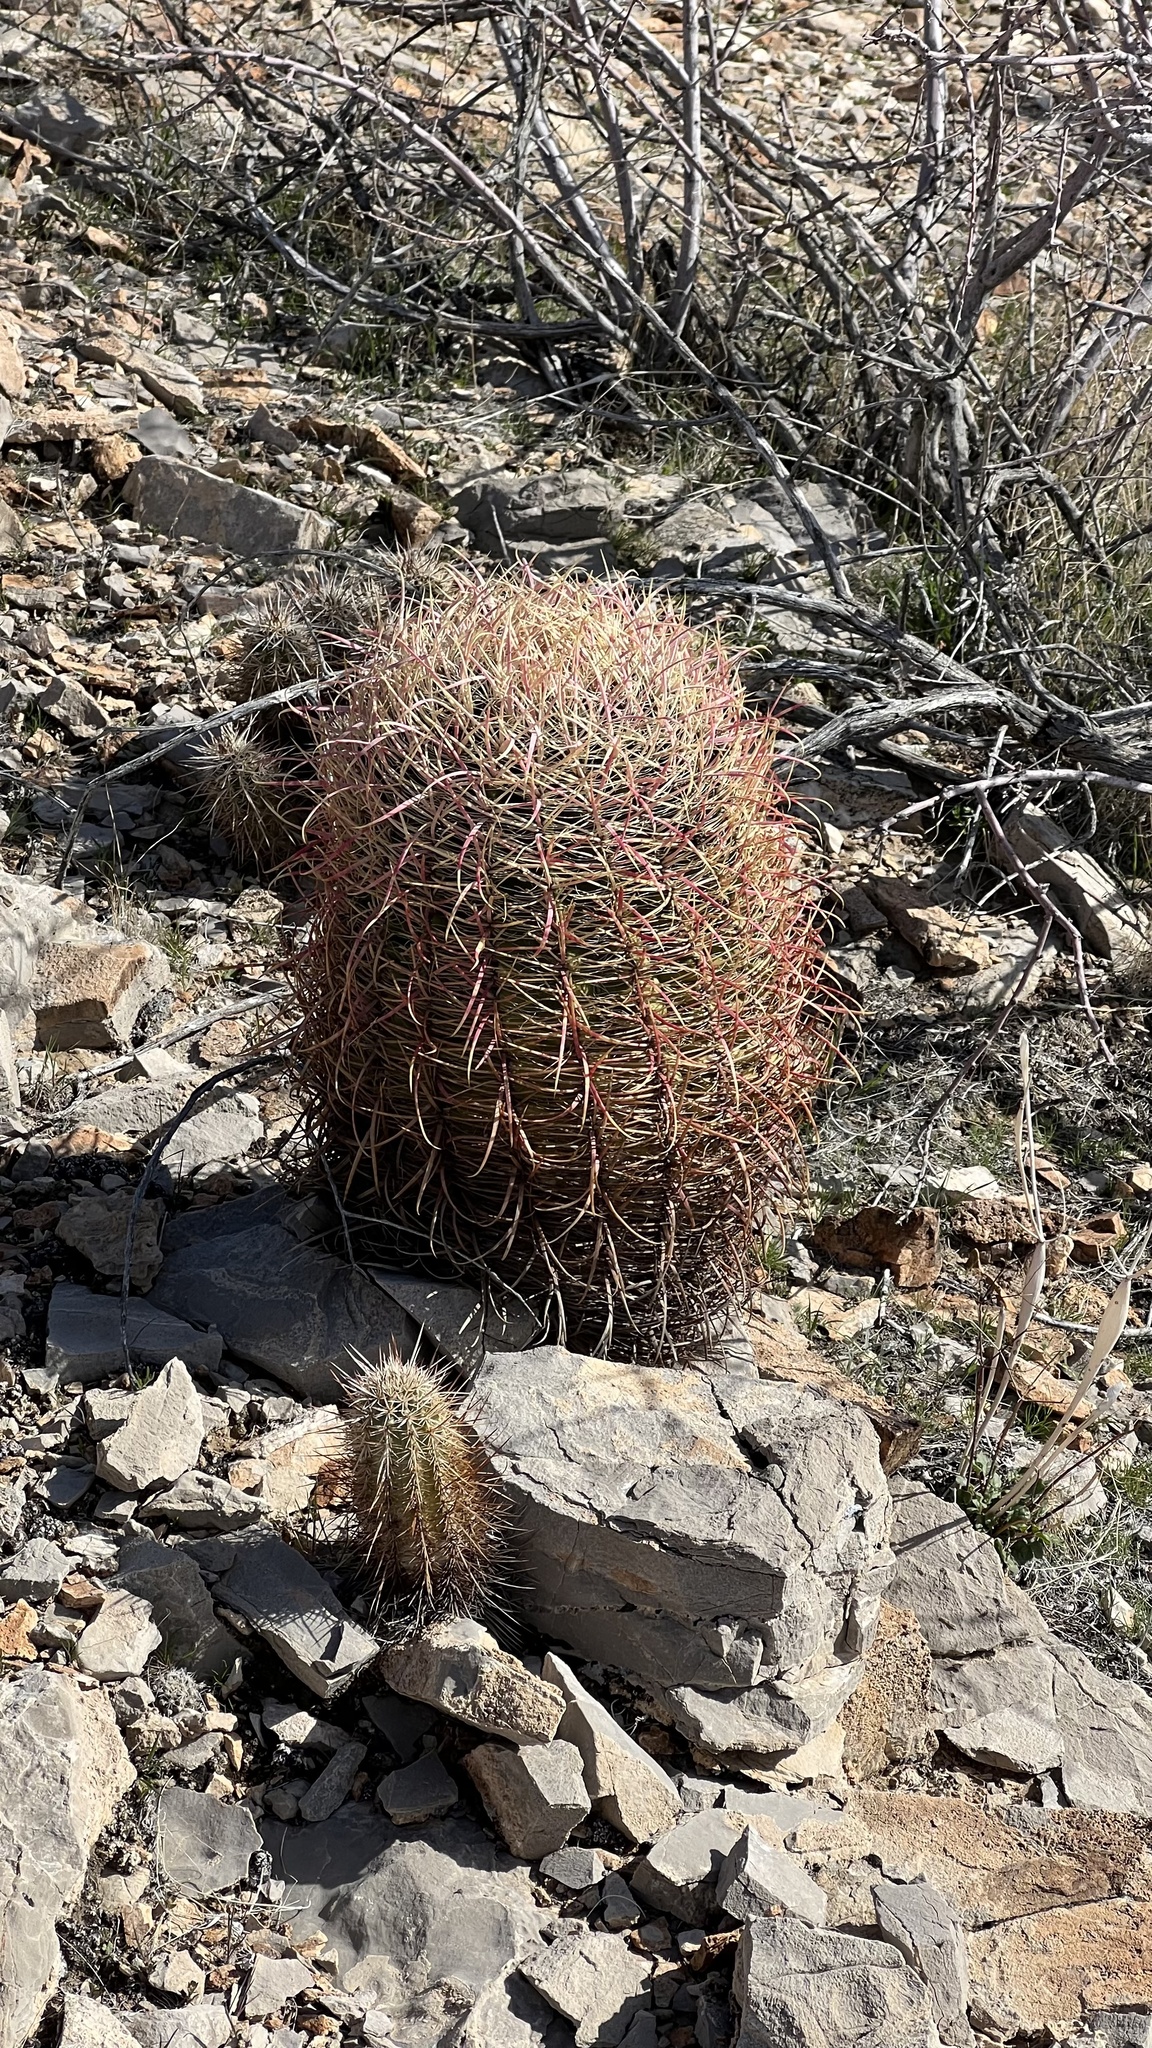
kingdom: Plantae
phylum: Tracheophyta
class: Magnoliopsida
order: Caryophyllales
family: Cactaceae
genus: Ferocactus
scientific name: Ferocactus cylindraceus
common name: California barrel cactus
